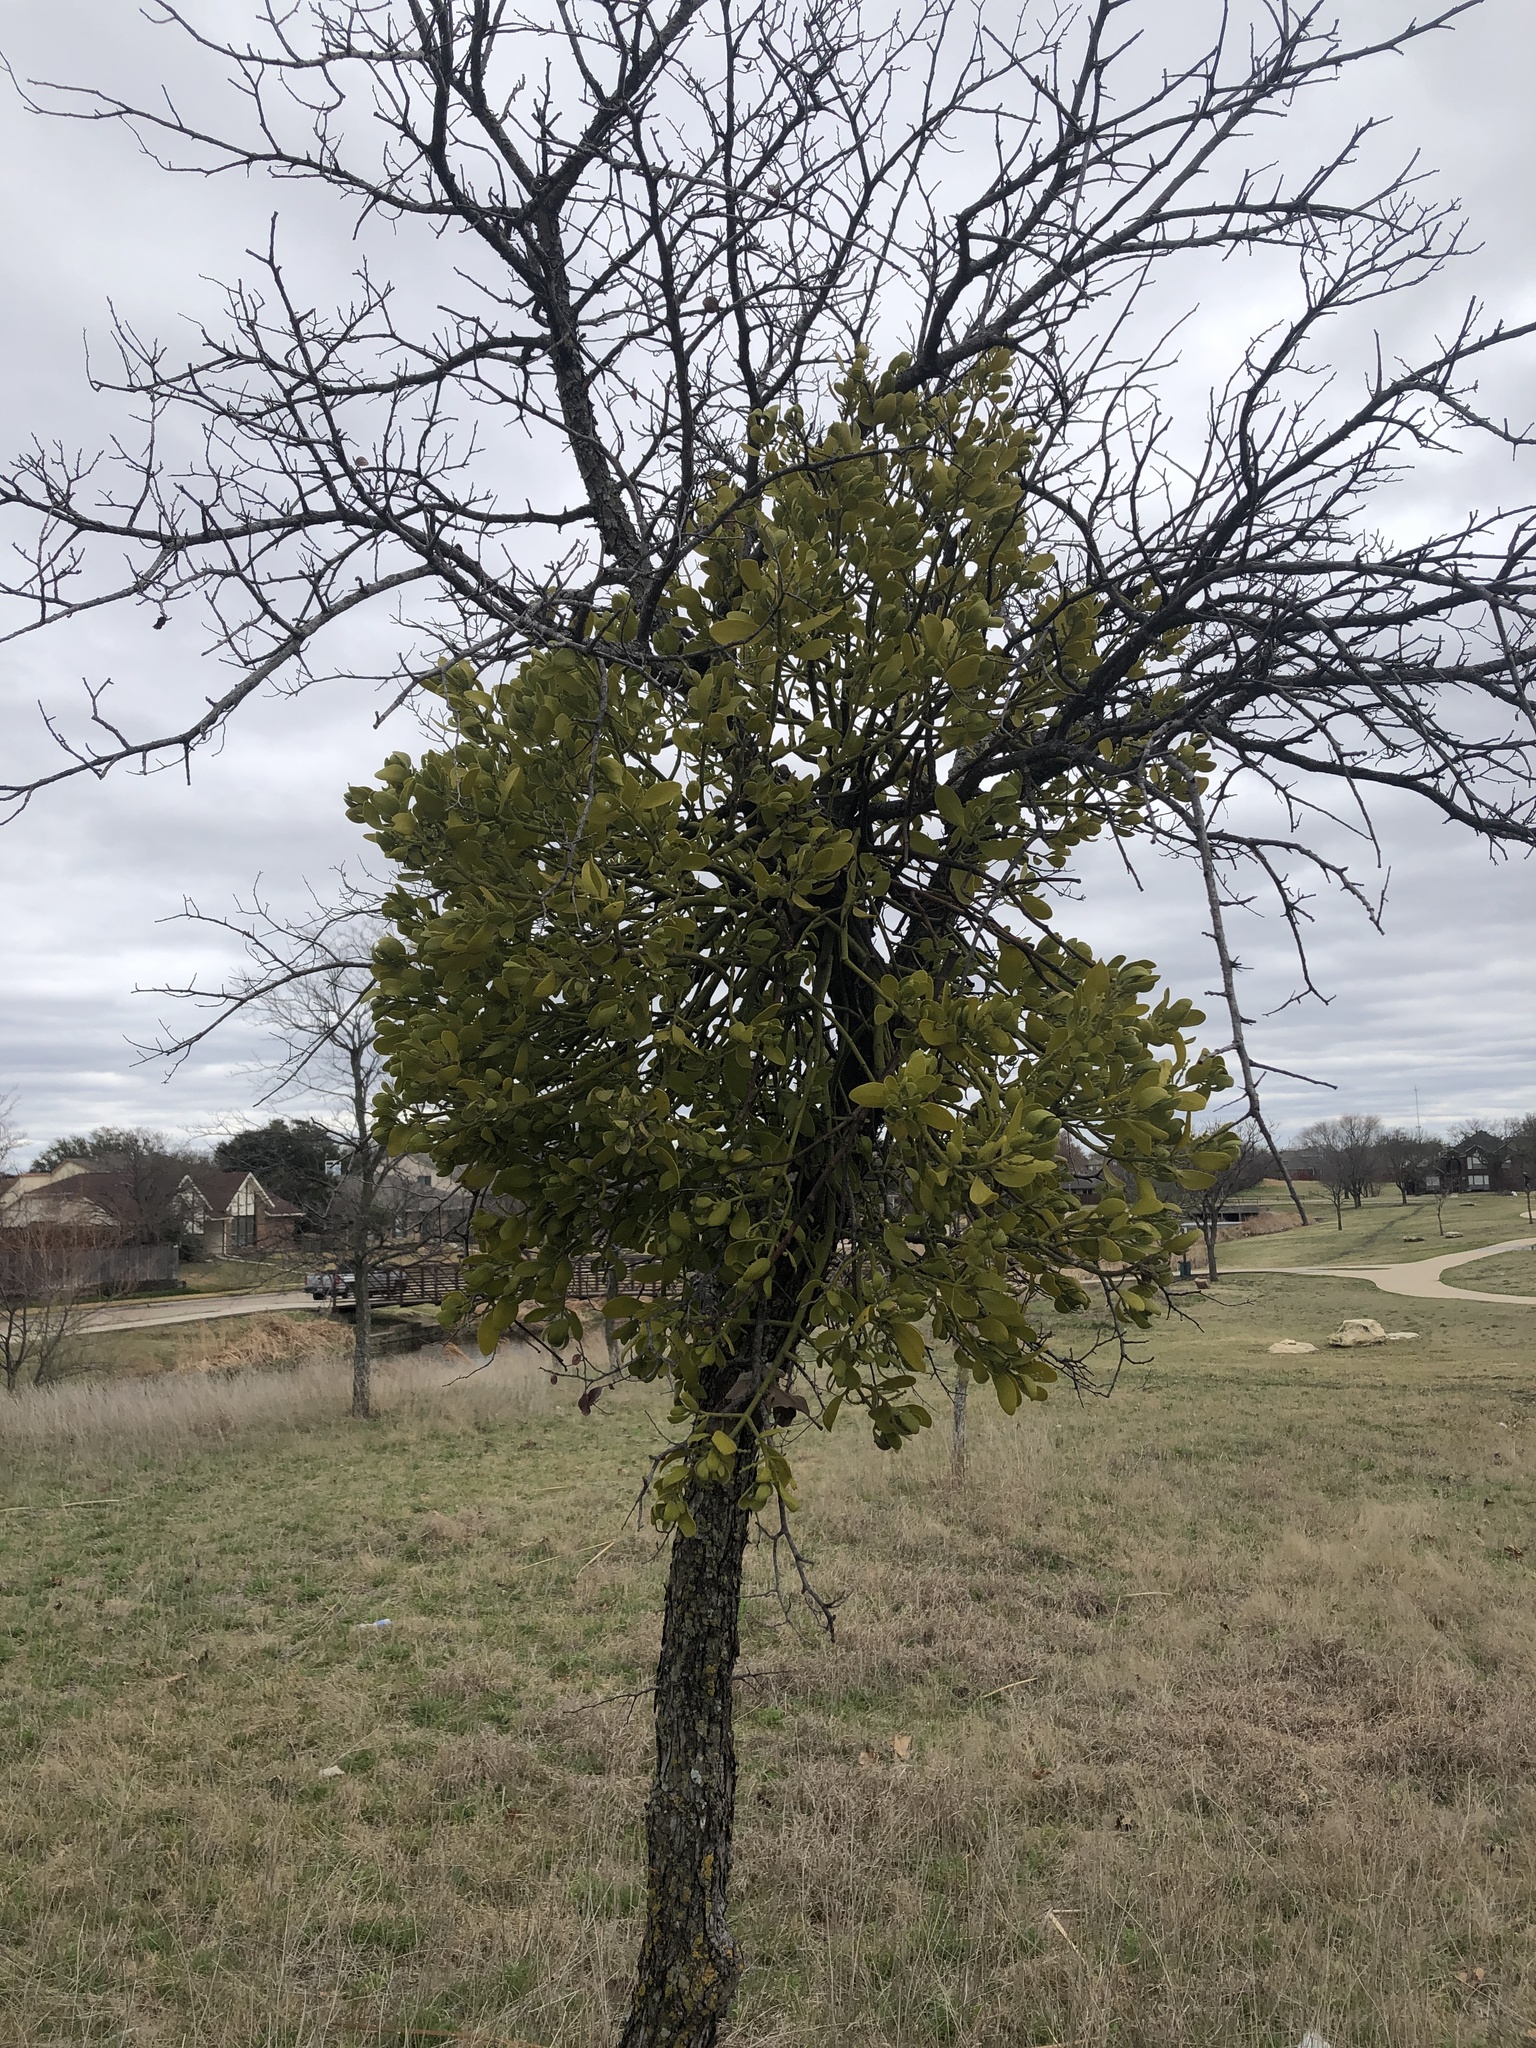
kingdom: Plantae
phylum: Tracheophyta
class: Magnoliopsida
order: Santalales
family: Viscaceae
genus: Phoradendron
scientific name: Phoradendron leucarpum
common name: Pacific mistletoe
